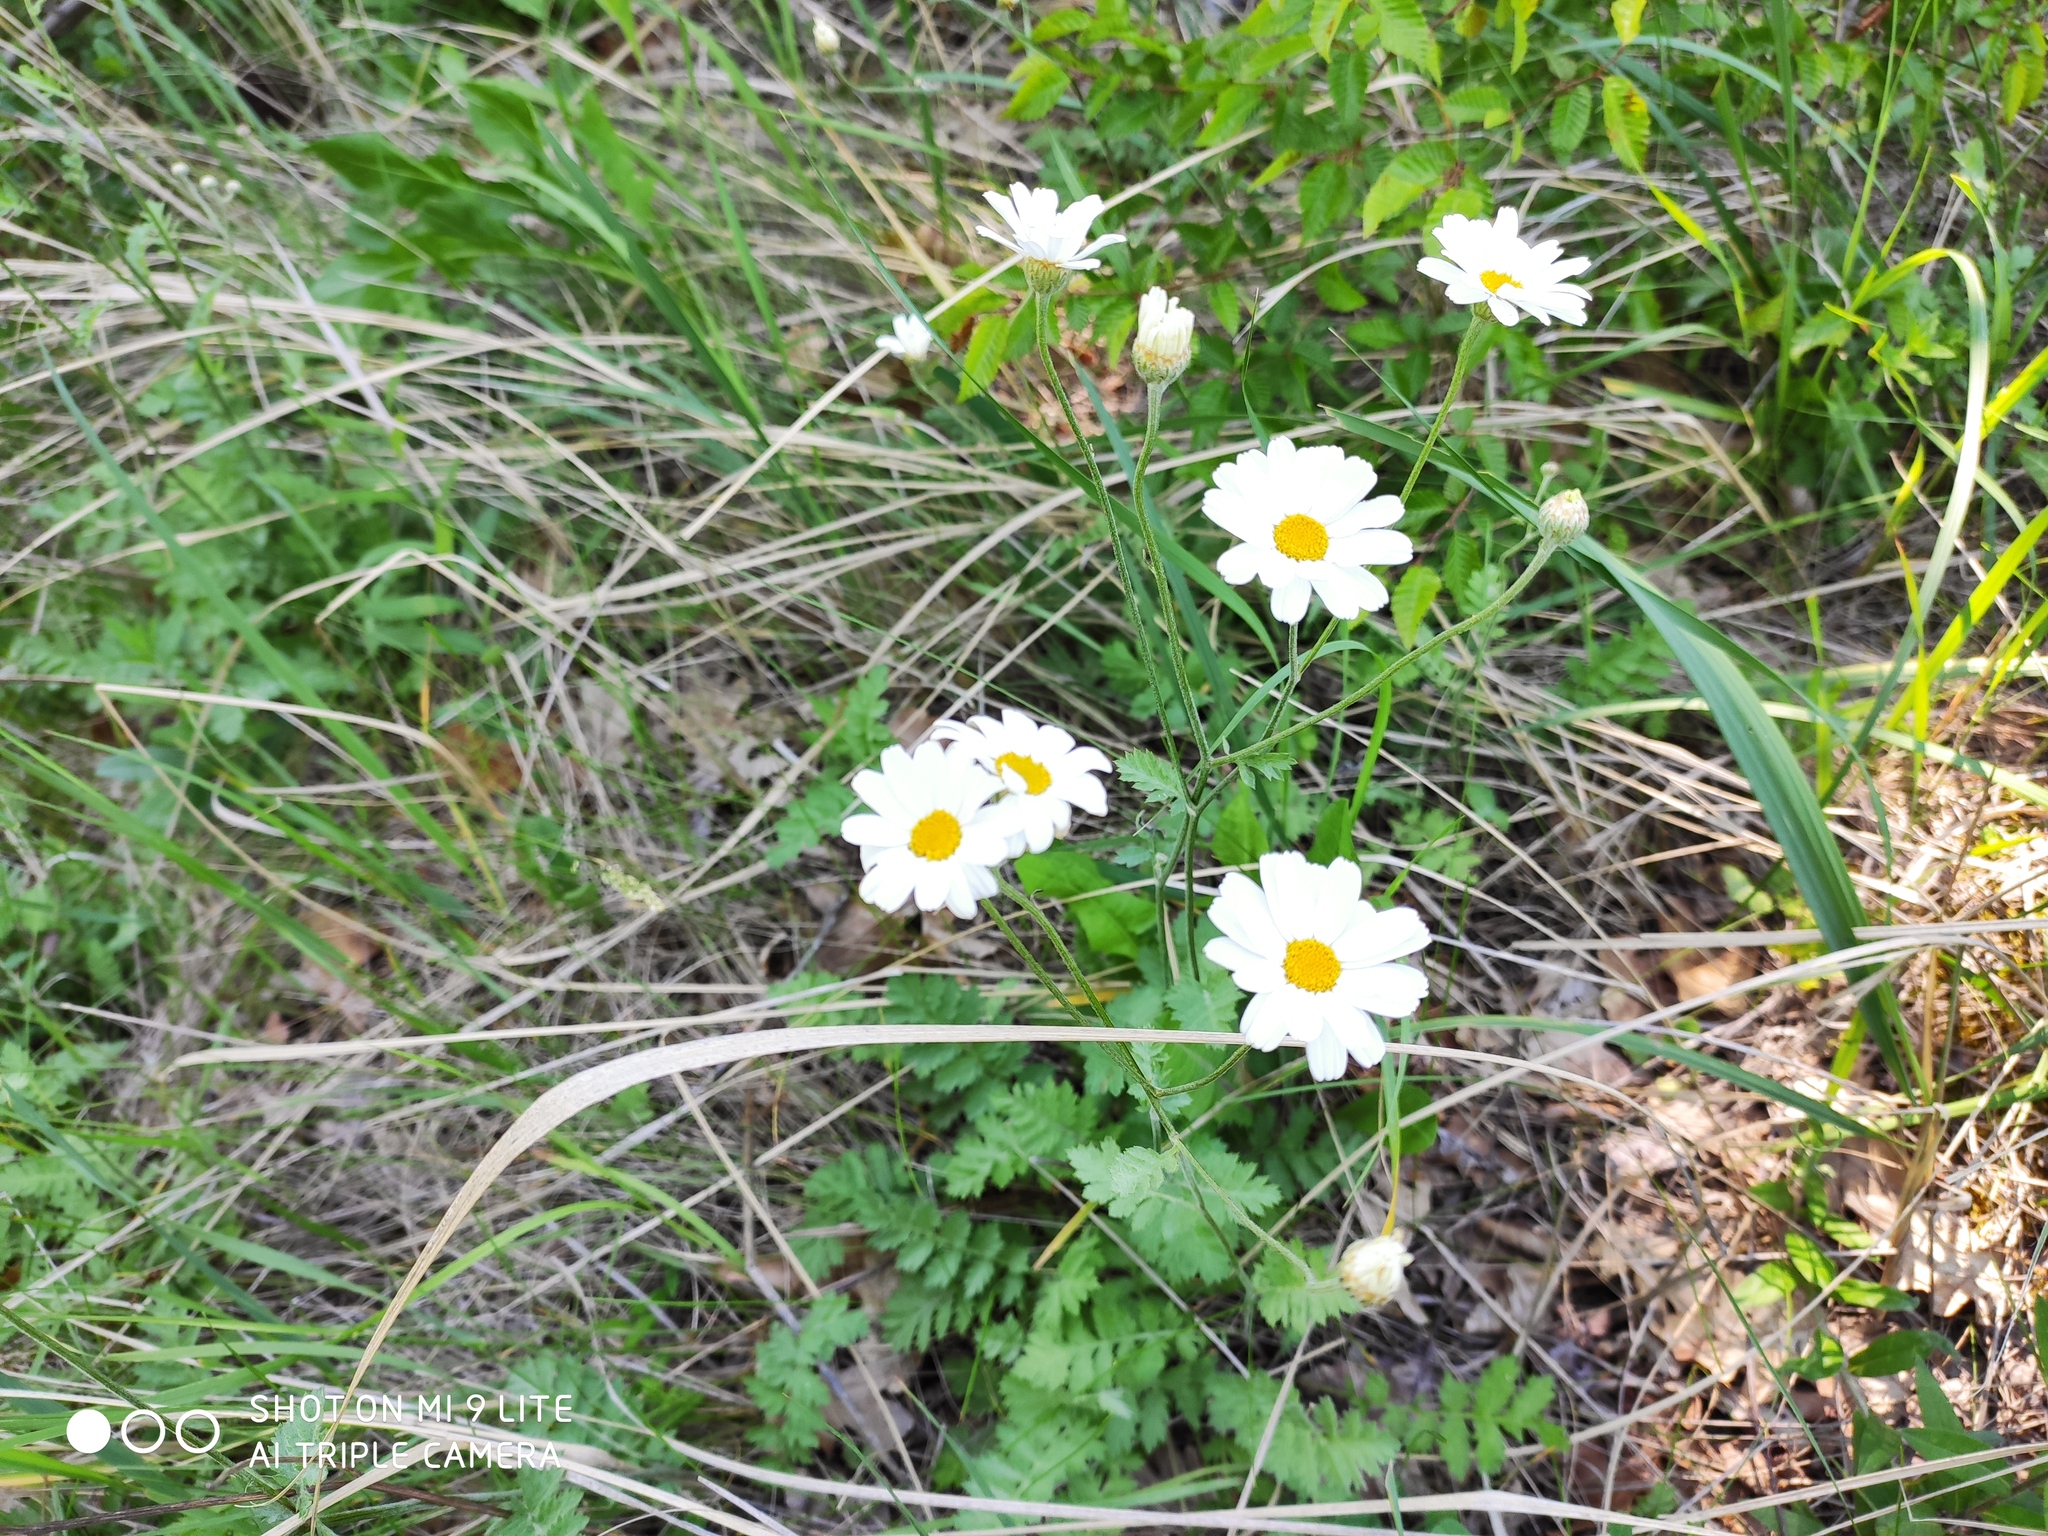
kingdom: Plantae
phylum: Tracheophyta
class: Magnoliopsida
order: Asterales
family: Asteraceae
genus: Tanacetum
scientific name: Tanacetum poteriifolium
